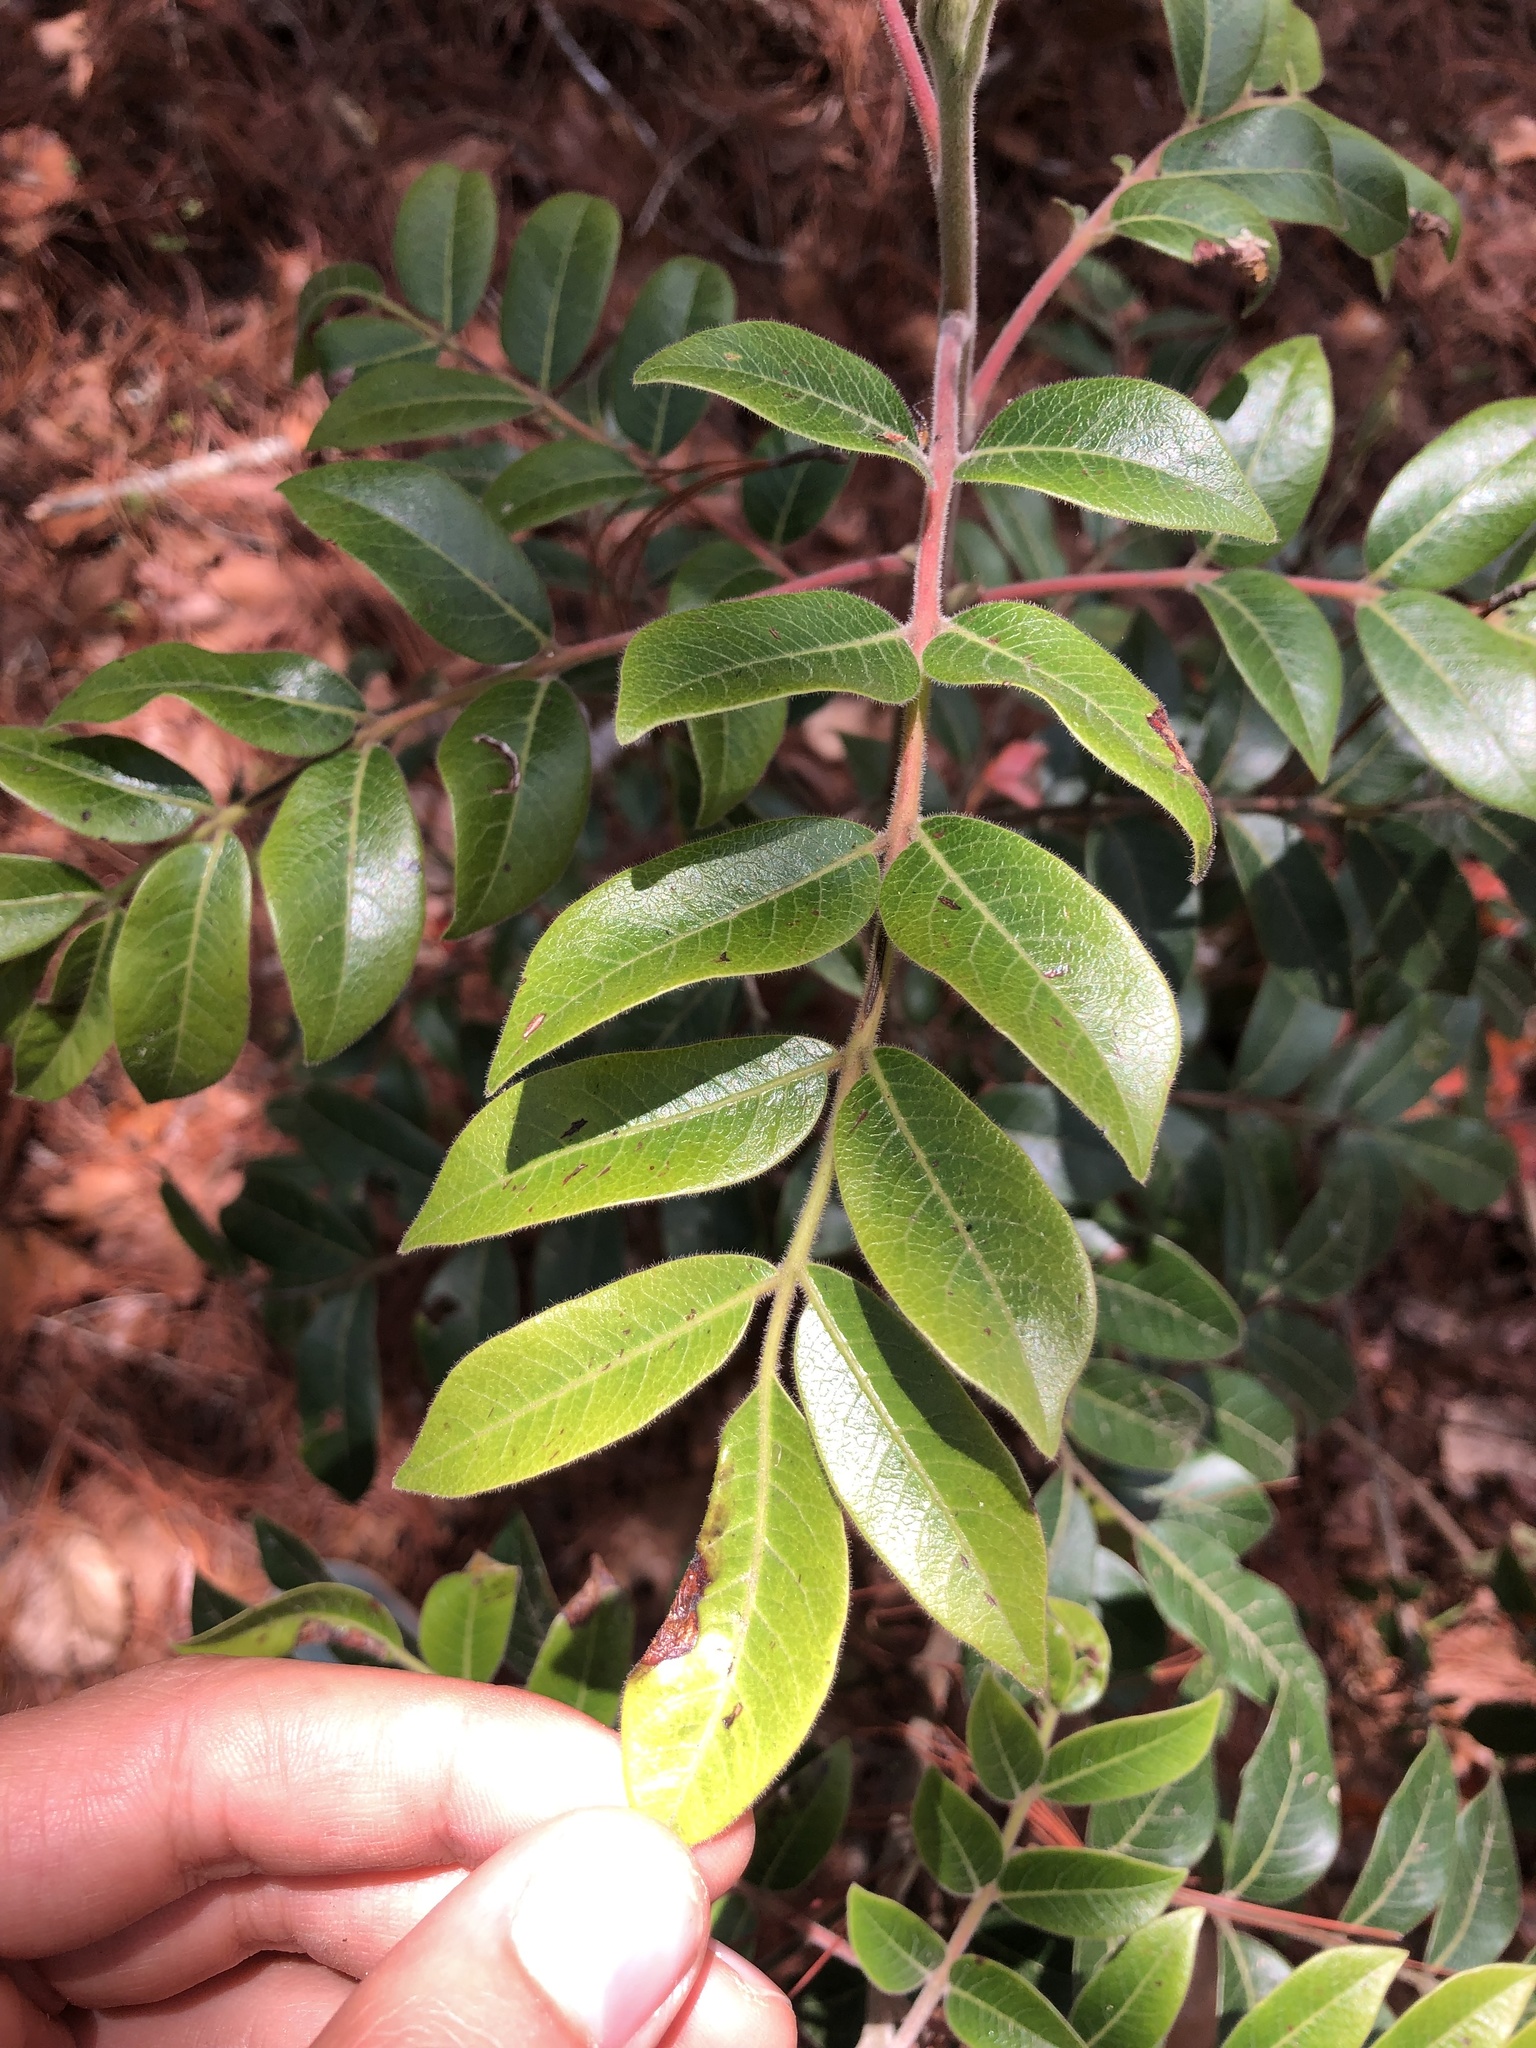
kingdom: Plantae
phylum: Tracheophyta
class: Magnoliopsida
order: Sapindales
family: Anacardiaceae
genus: Rhus
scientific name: Rhus schiedeana
